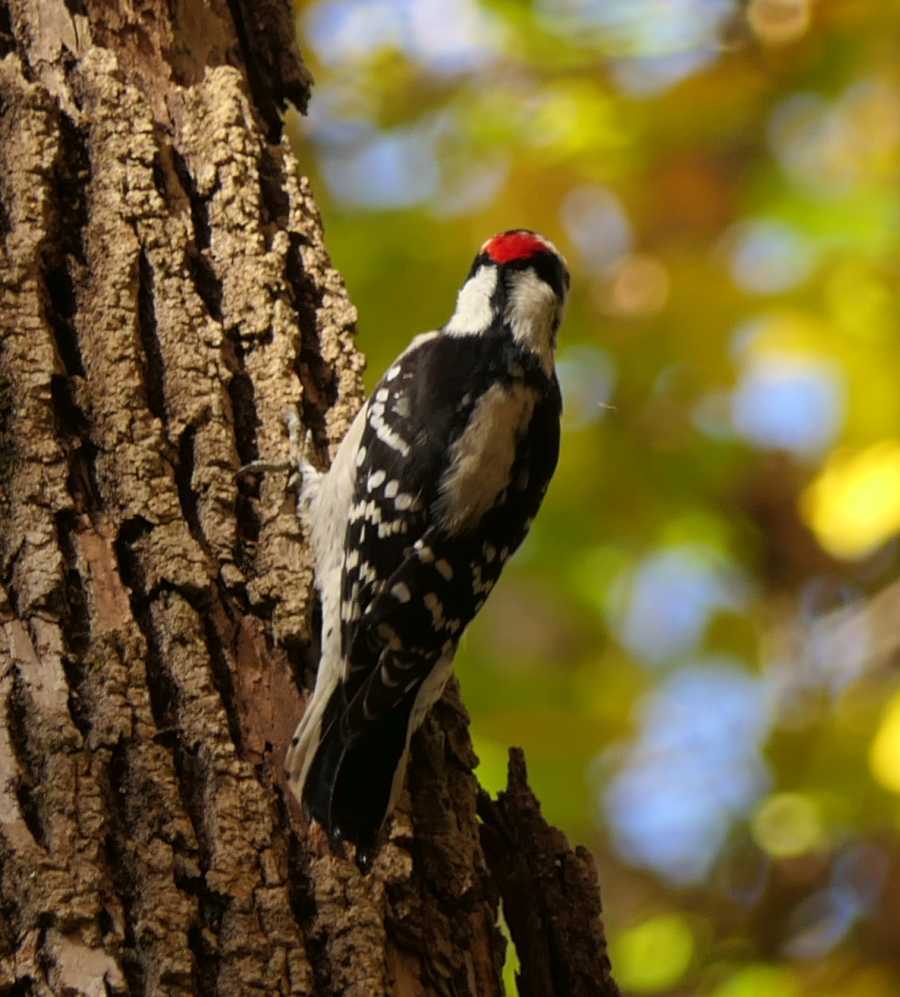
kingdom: Animalia
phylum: Chordata
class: Aves
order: Piciformes
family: Picidae
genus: Dryobates
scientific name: Dryobates pubescens
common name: Downy woodpecker
